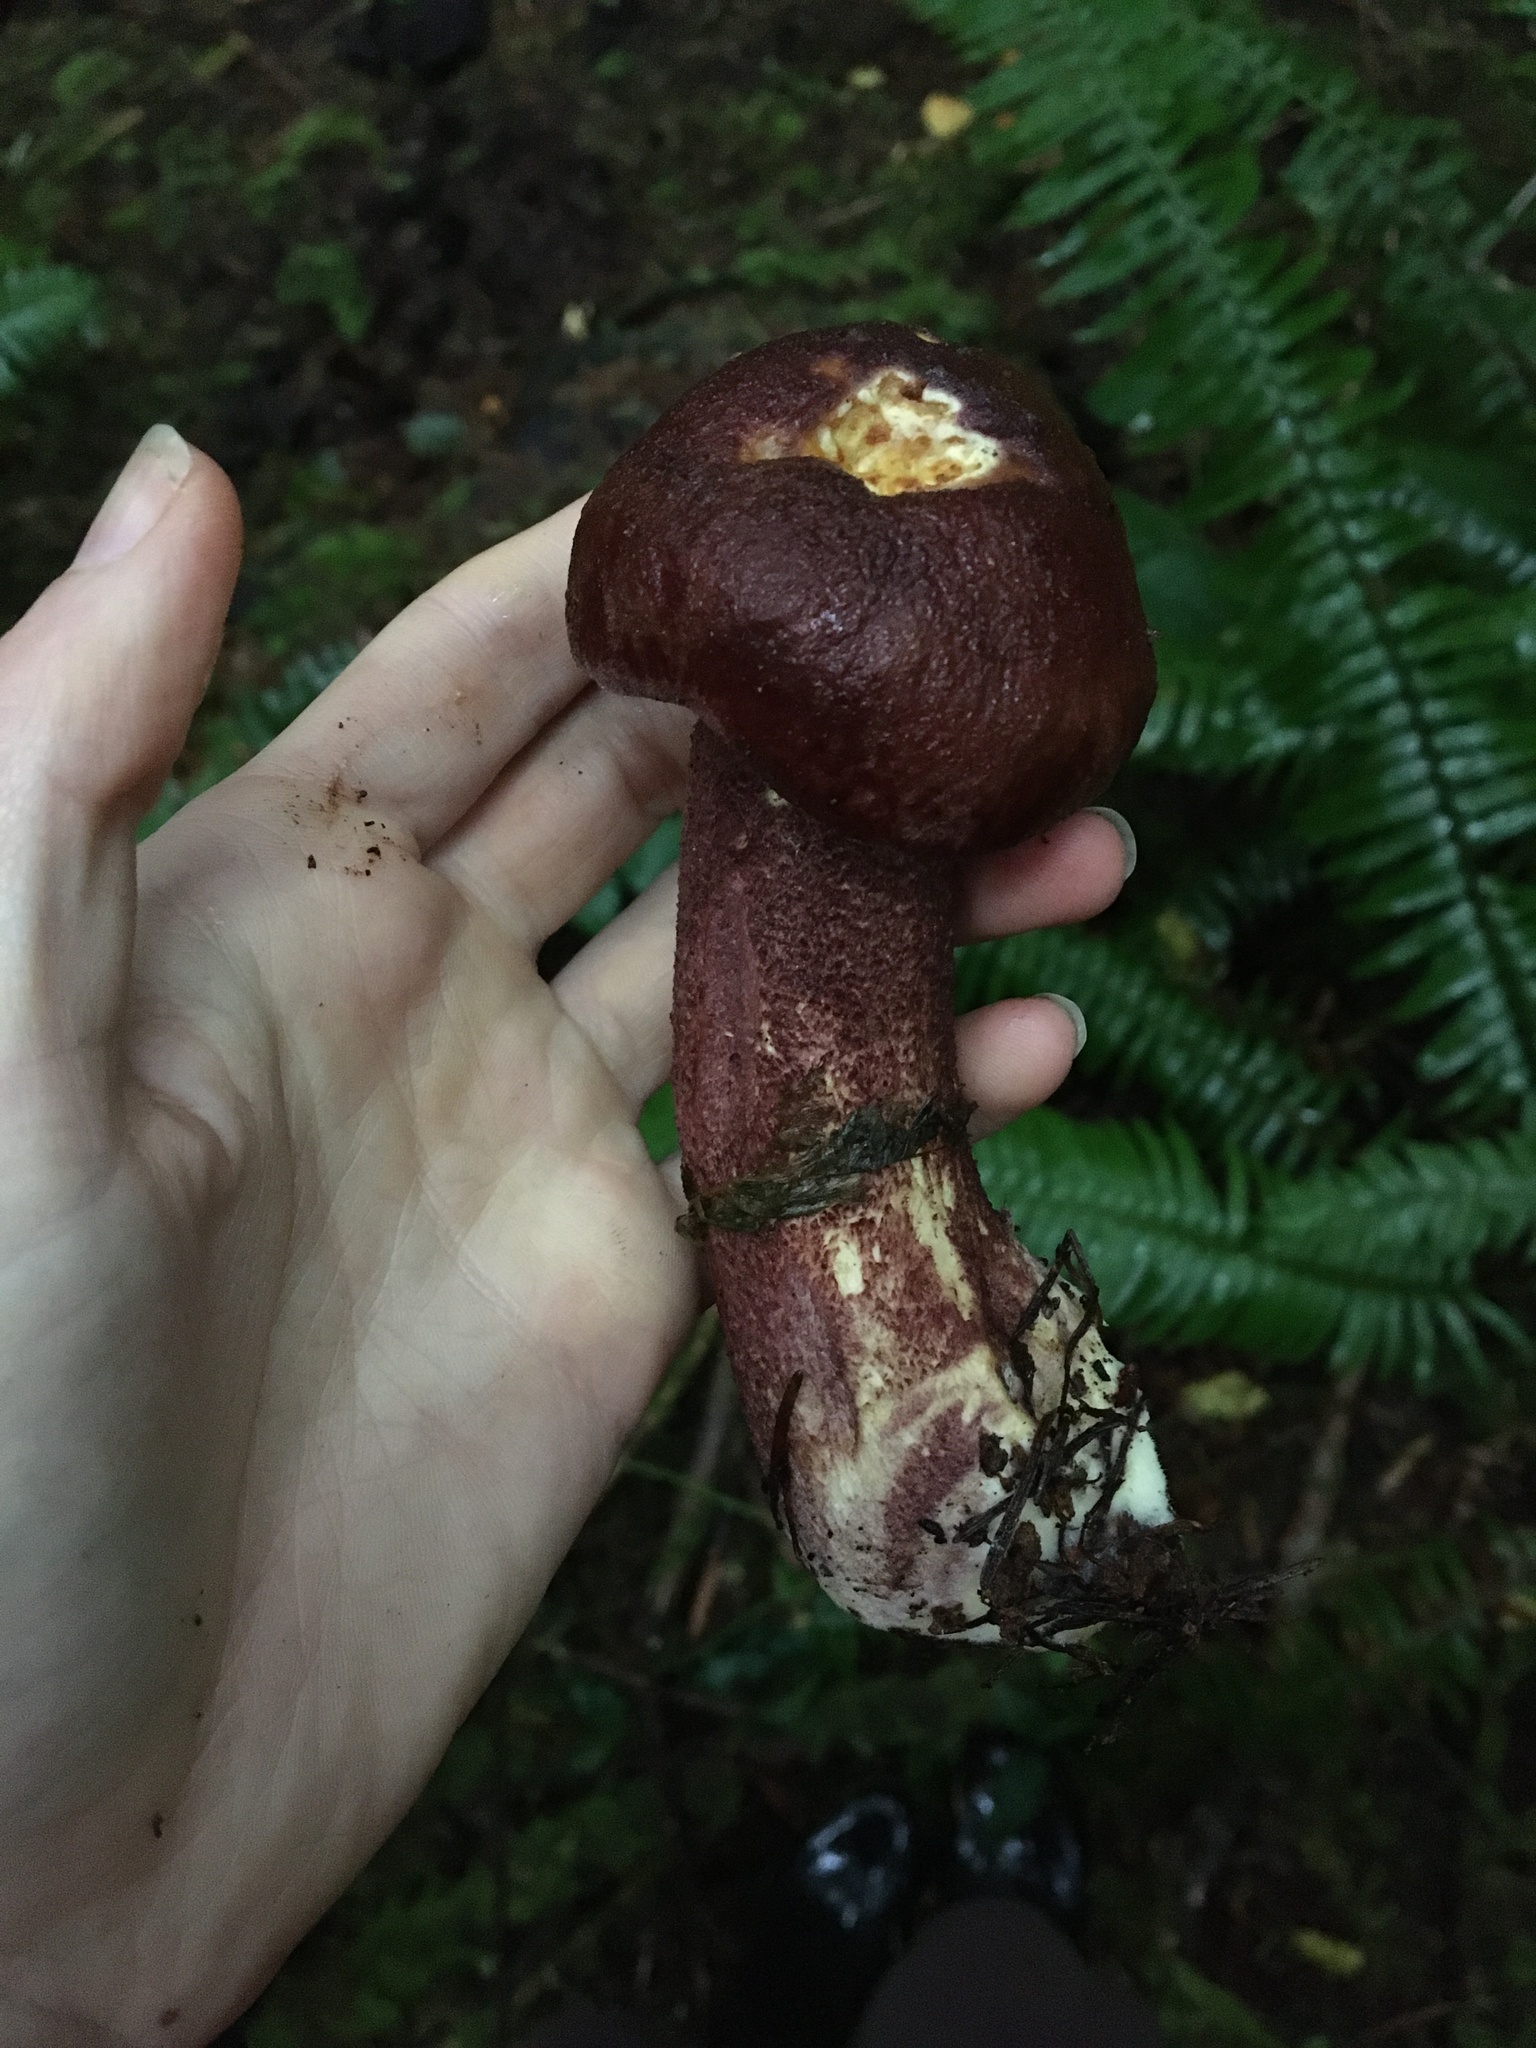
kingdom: Fungi
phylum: Basidiomycota
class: Agaricomycetes
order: Agaricales
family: Tricholomataceae
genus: Tricholomopsis
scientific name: Tricholomopsis rutilans
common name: Plums and custard
